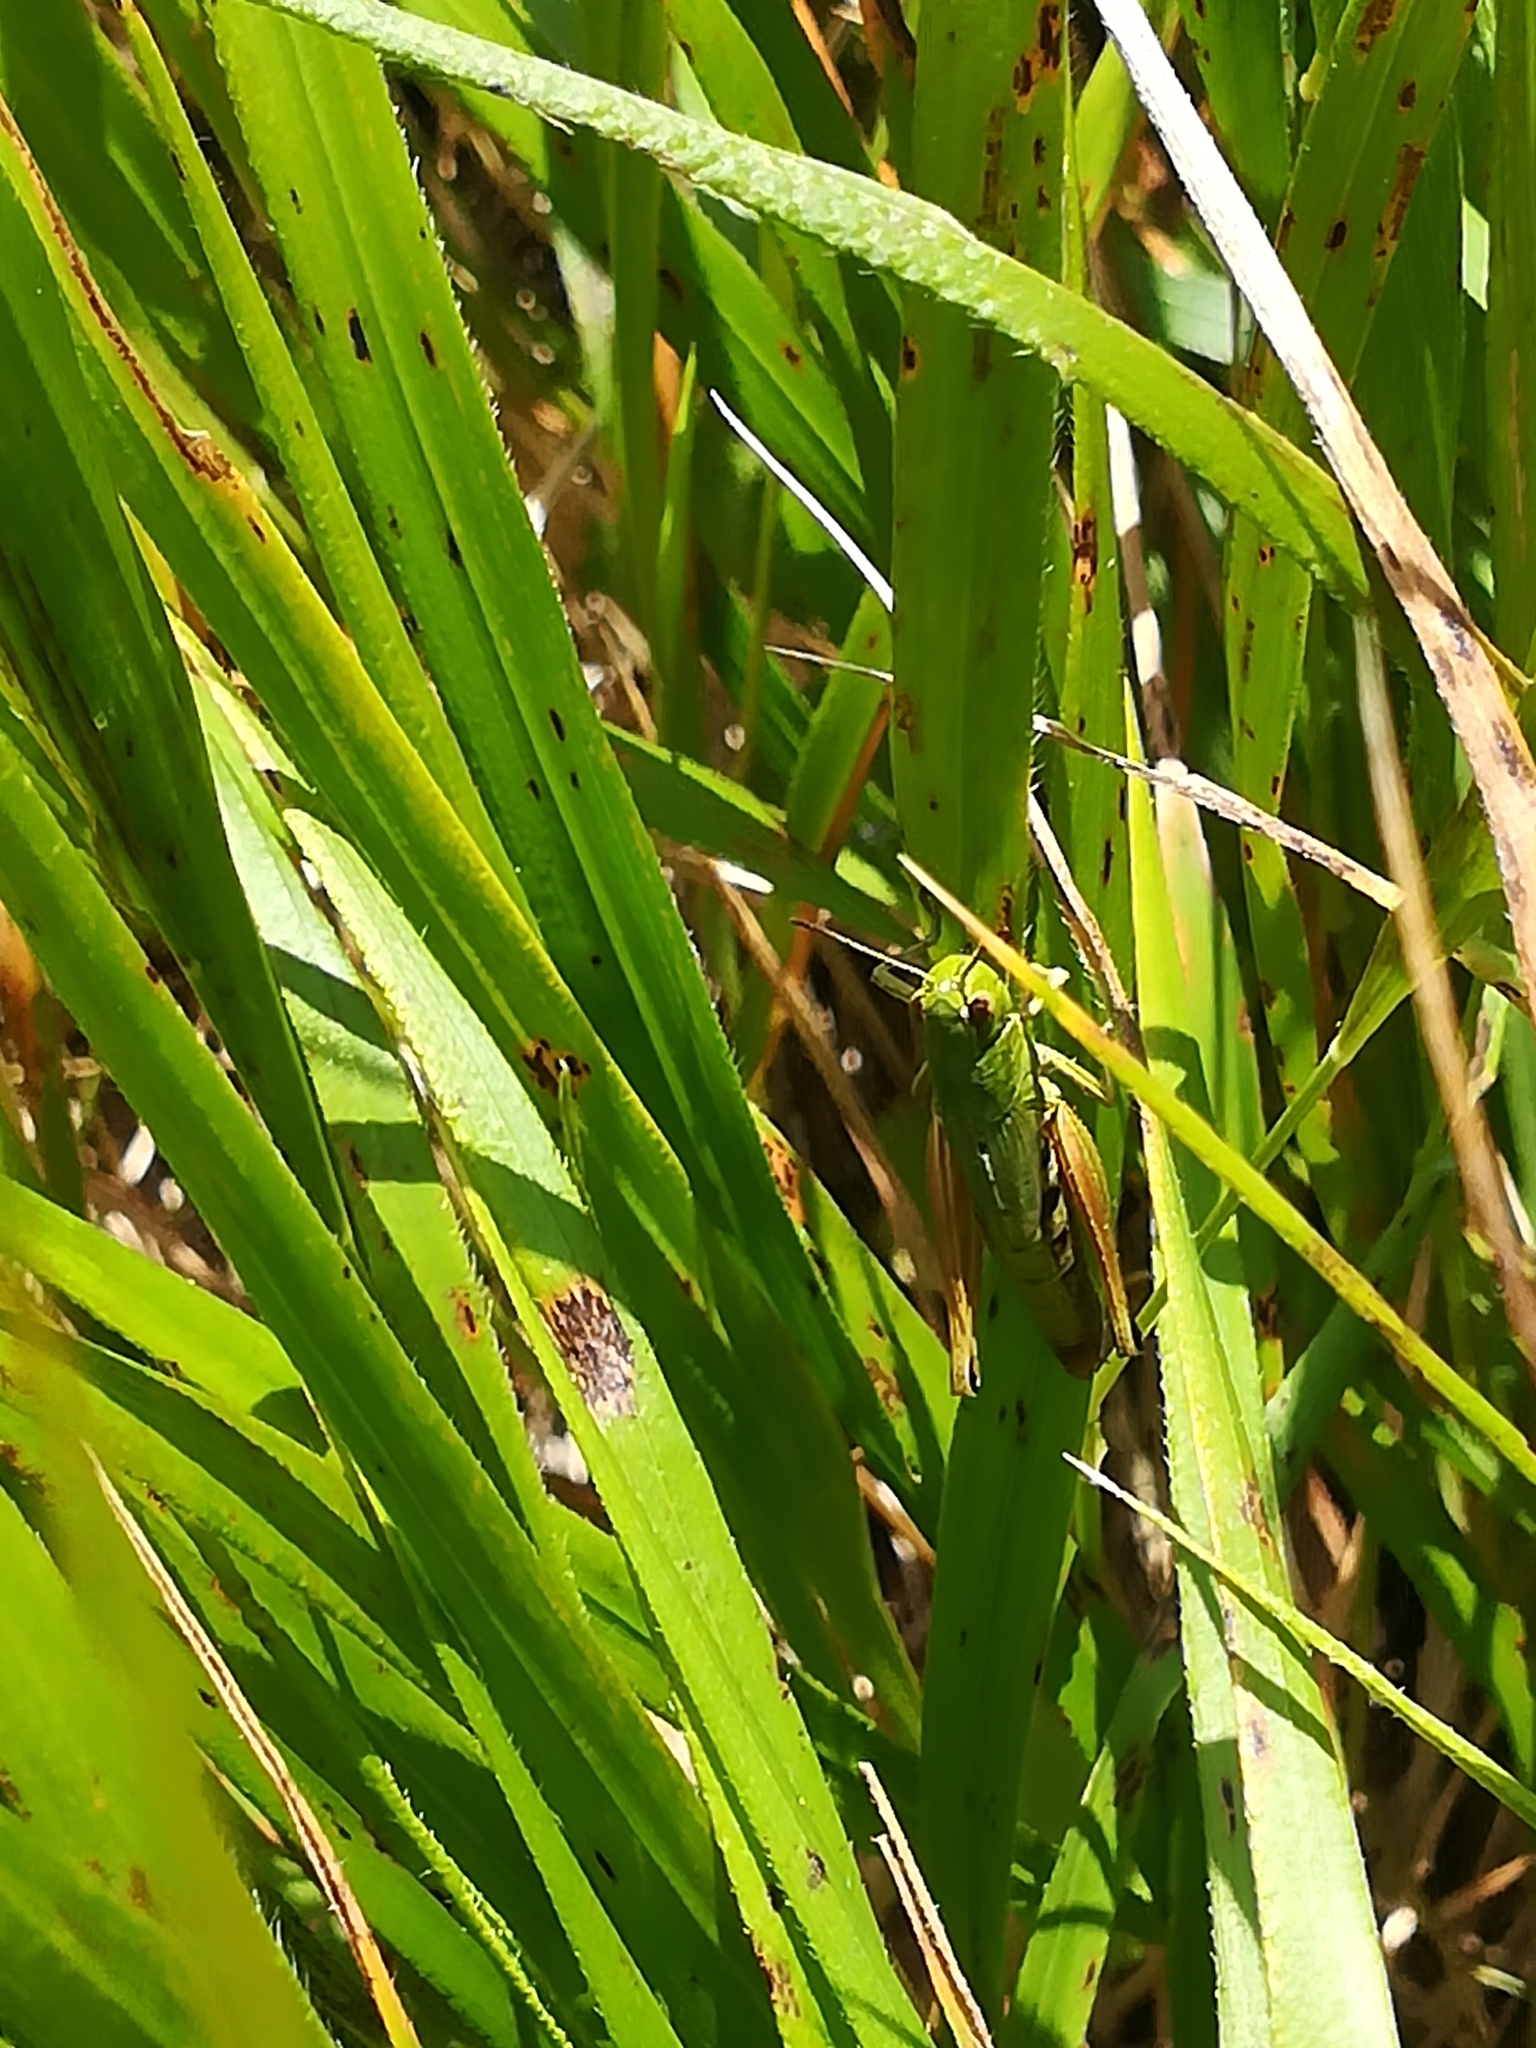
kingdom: Animalia
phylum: Arthropoda
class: Insecta
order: Orthoptera
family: Acrididae
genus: Pseudochorthippus
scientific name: Pseudochorthippus parallelus
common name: Meadow grasshopper
